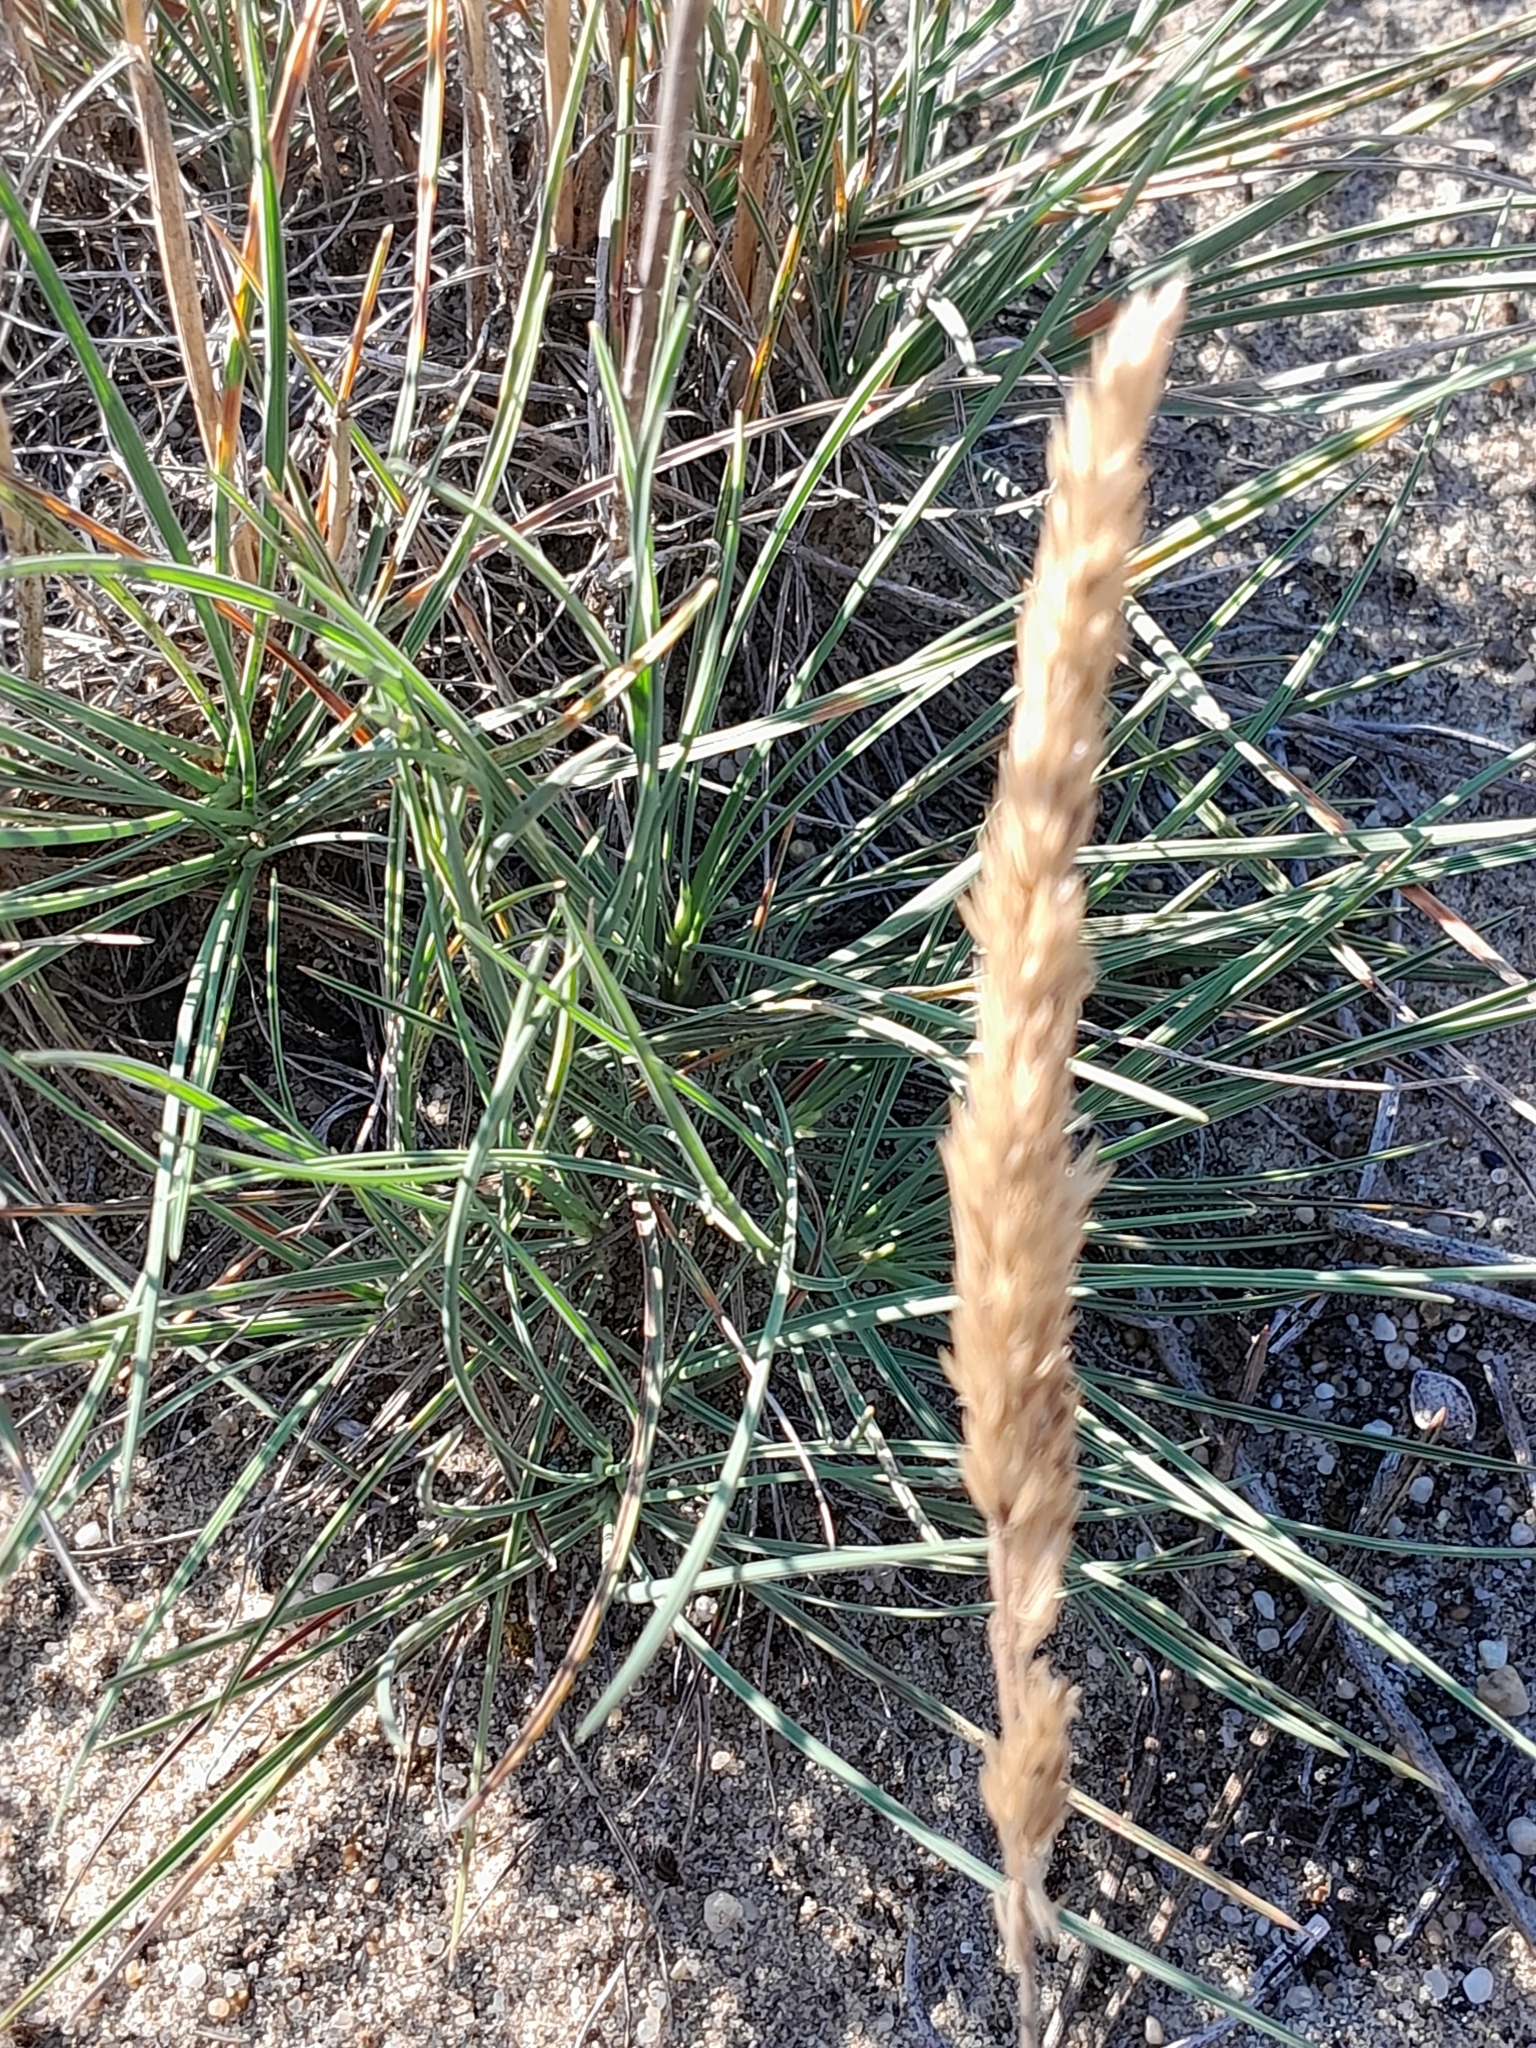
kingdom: Plantae
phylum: Tracheophyta
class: Liliopsida
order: Poales
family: Poaceae
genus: Koeleria
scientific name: Koeleria glauca
